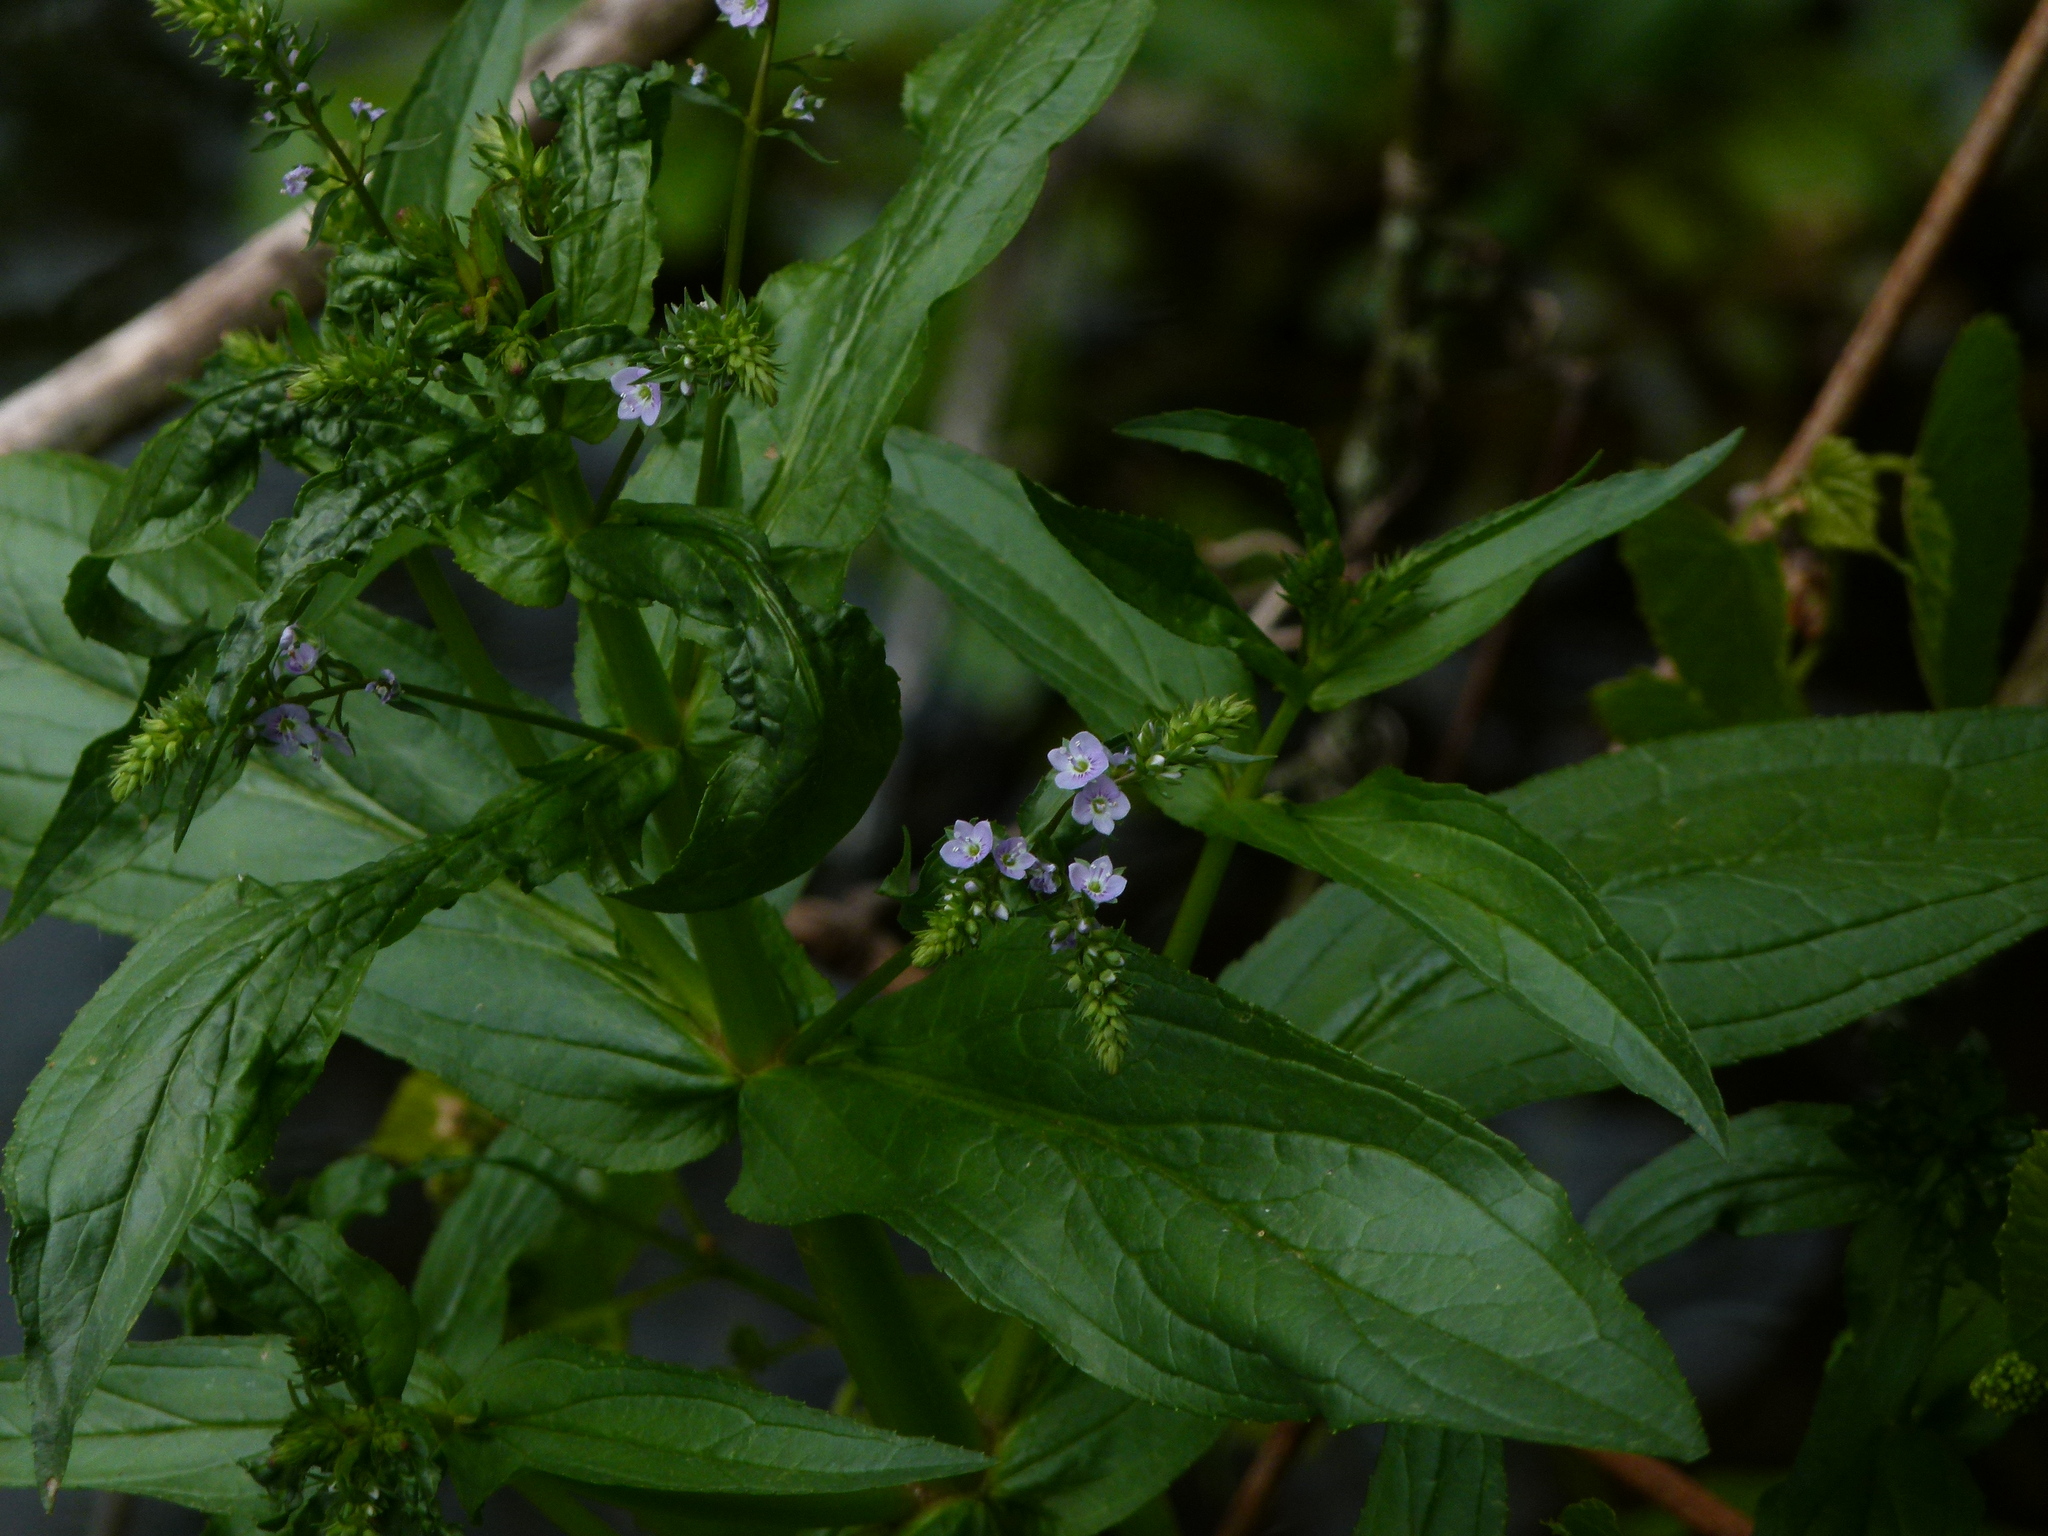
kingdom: Plantae
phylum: Tracheophyta
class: Magnoliopsida
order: Lamiales
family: Plantaginaceae
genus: Veronica
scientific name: Veronica anagallis-aquatica
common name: Water speedwell
